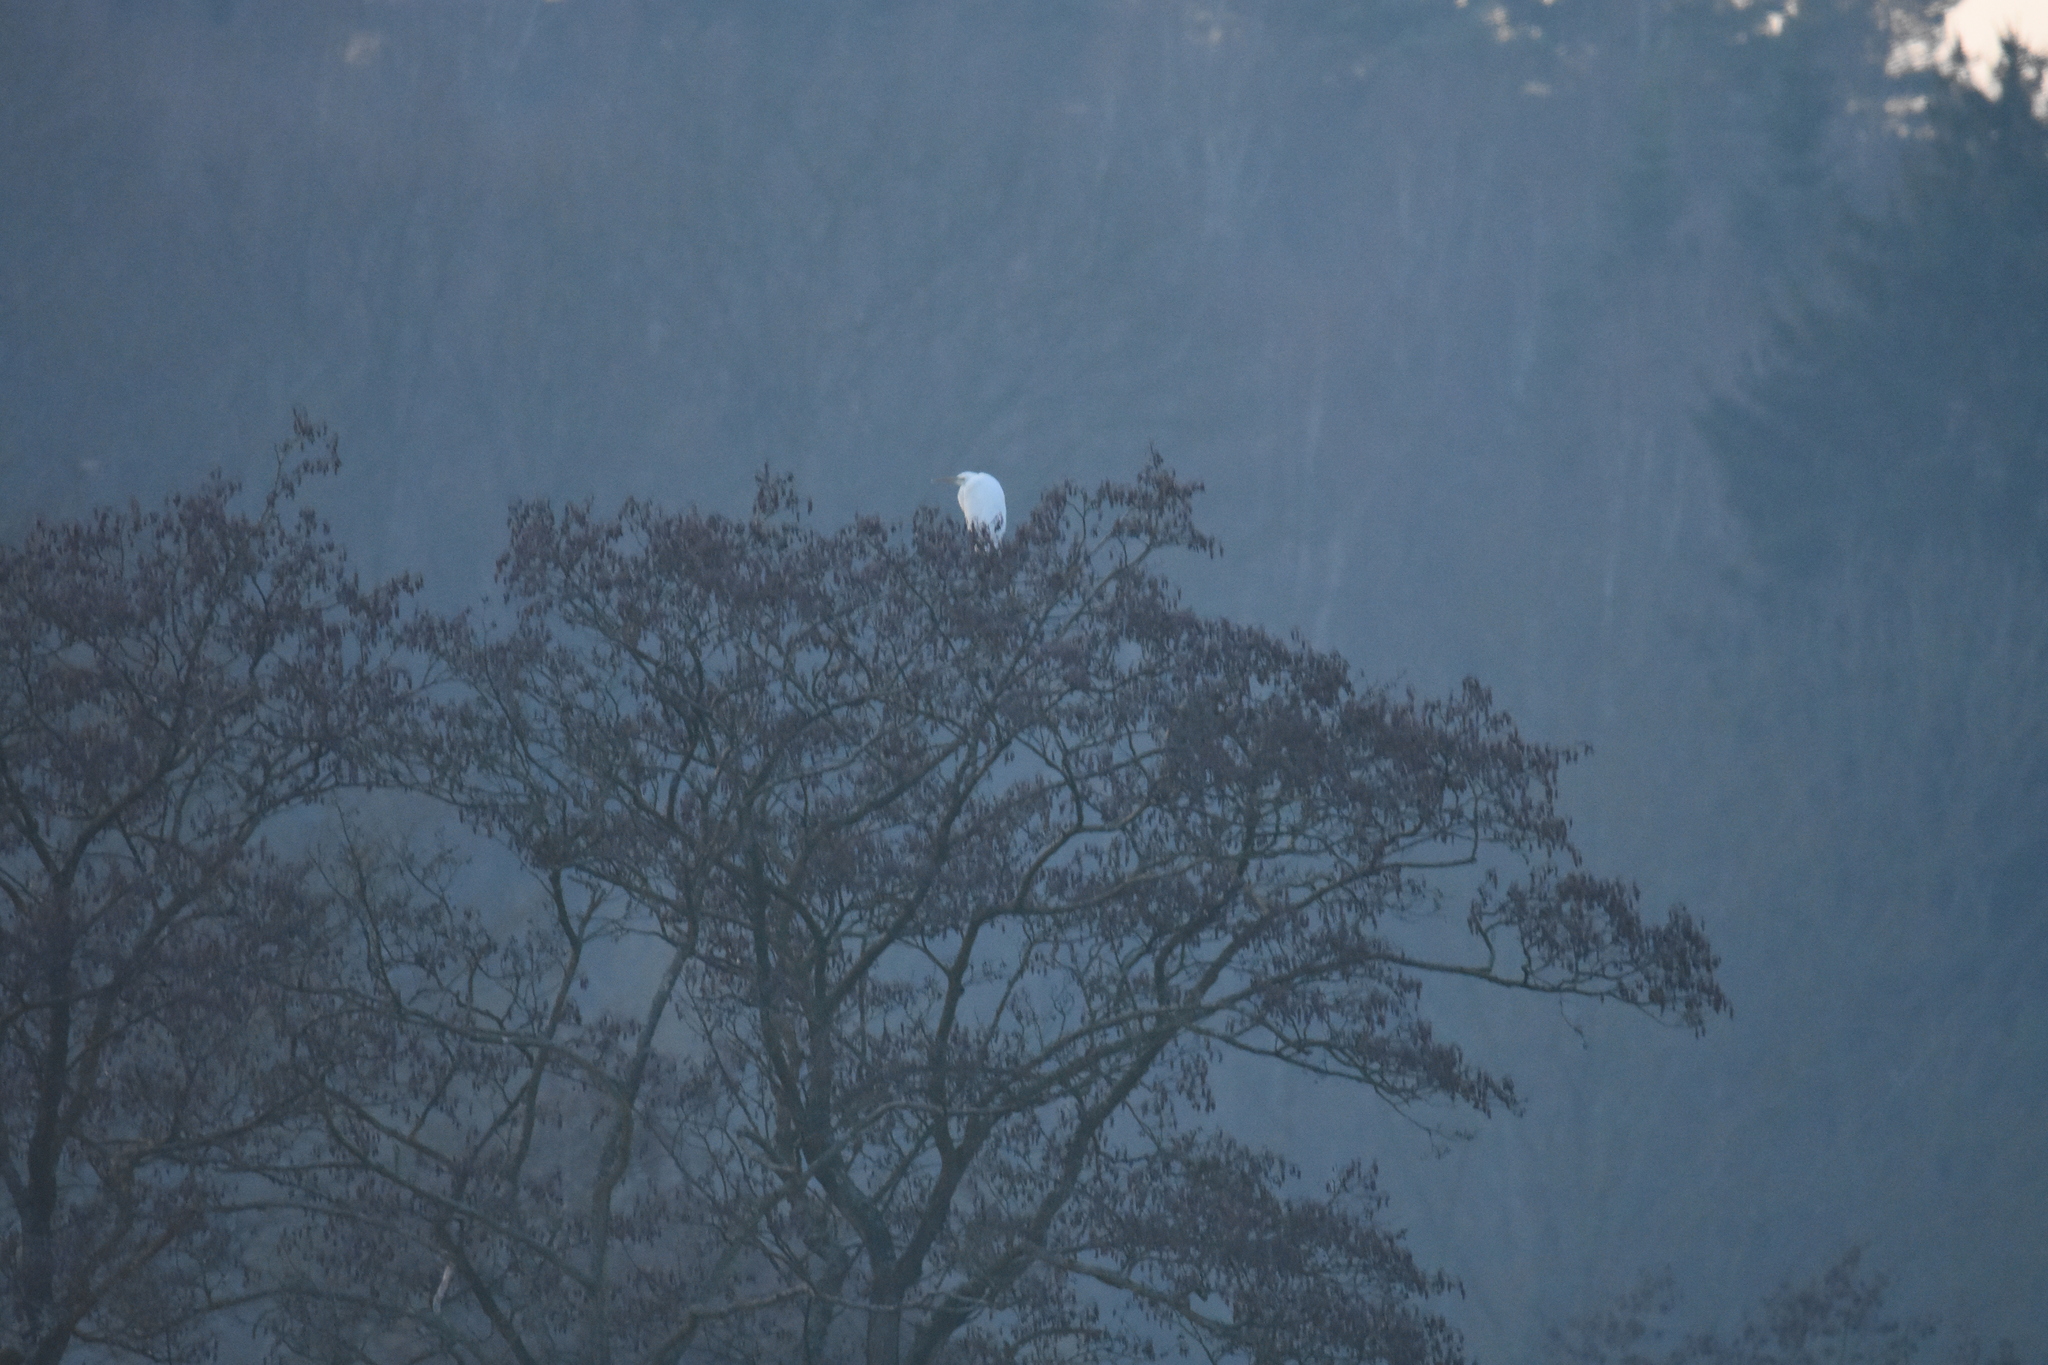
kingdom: Animalia
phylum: Chordata
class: Aves
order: Pelecaniformes
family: Ardeidae
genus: Ardea
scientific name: Ardea alba
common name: Great egret
